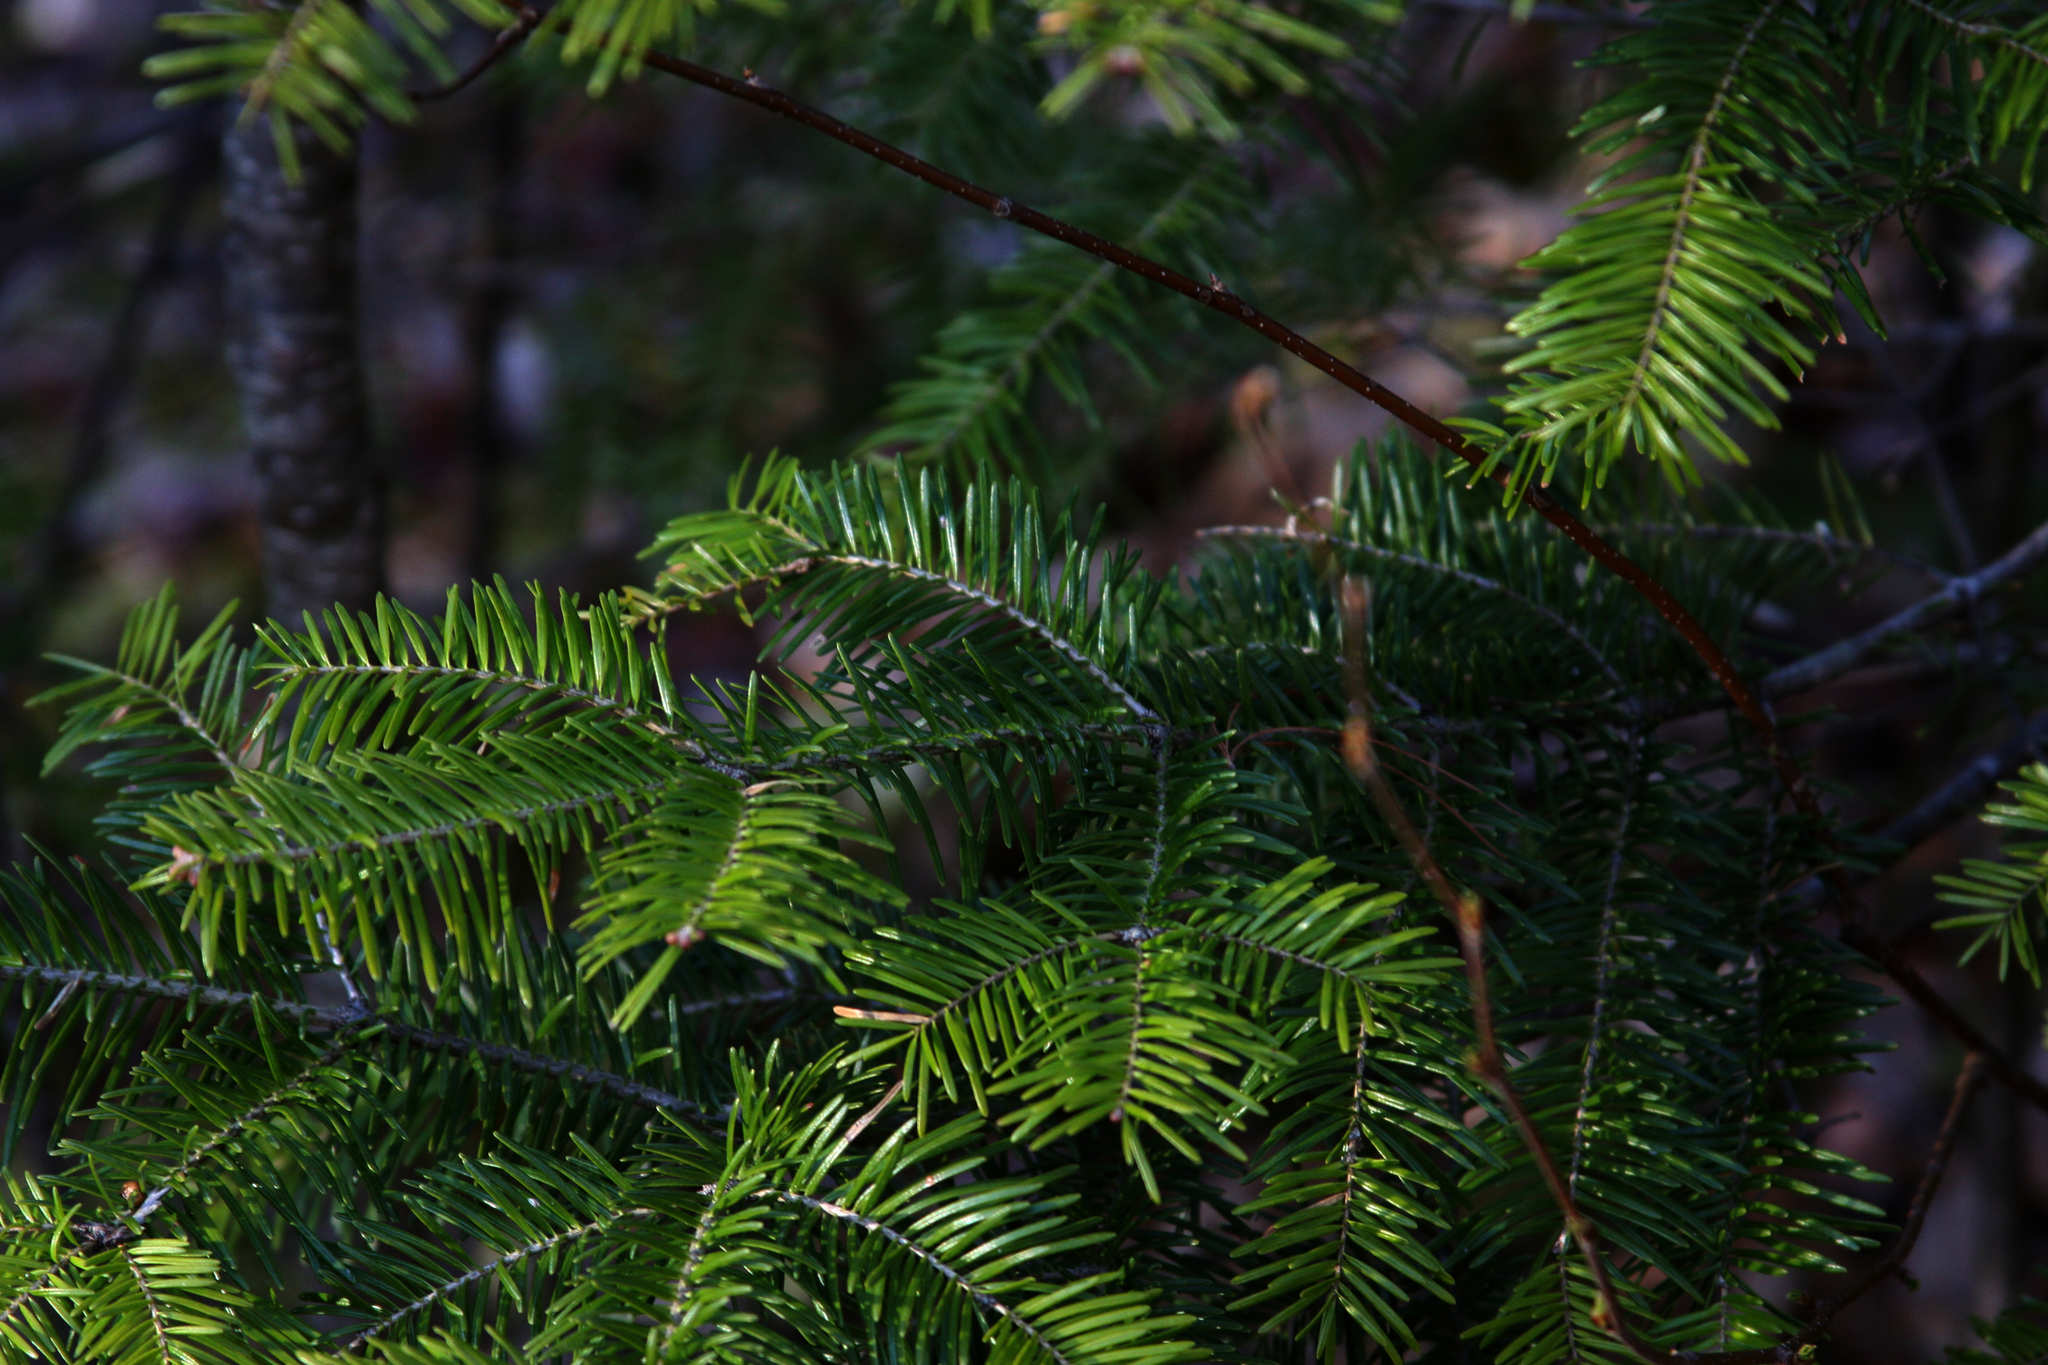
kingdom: Plantae
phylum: Tracheophyta
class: Pinopsida
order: Pinales
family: Pinaceae
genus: Abies
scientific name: Abies balsamea
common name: Balsam fir
